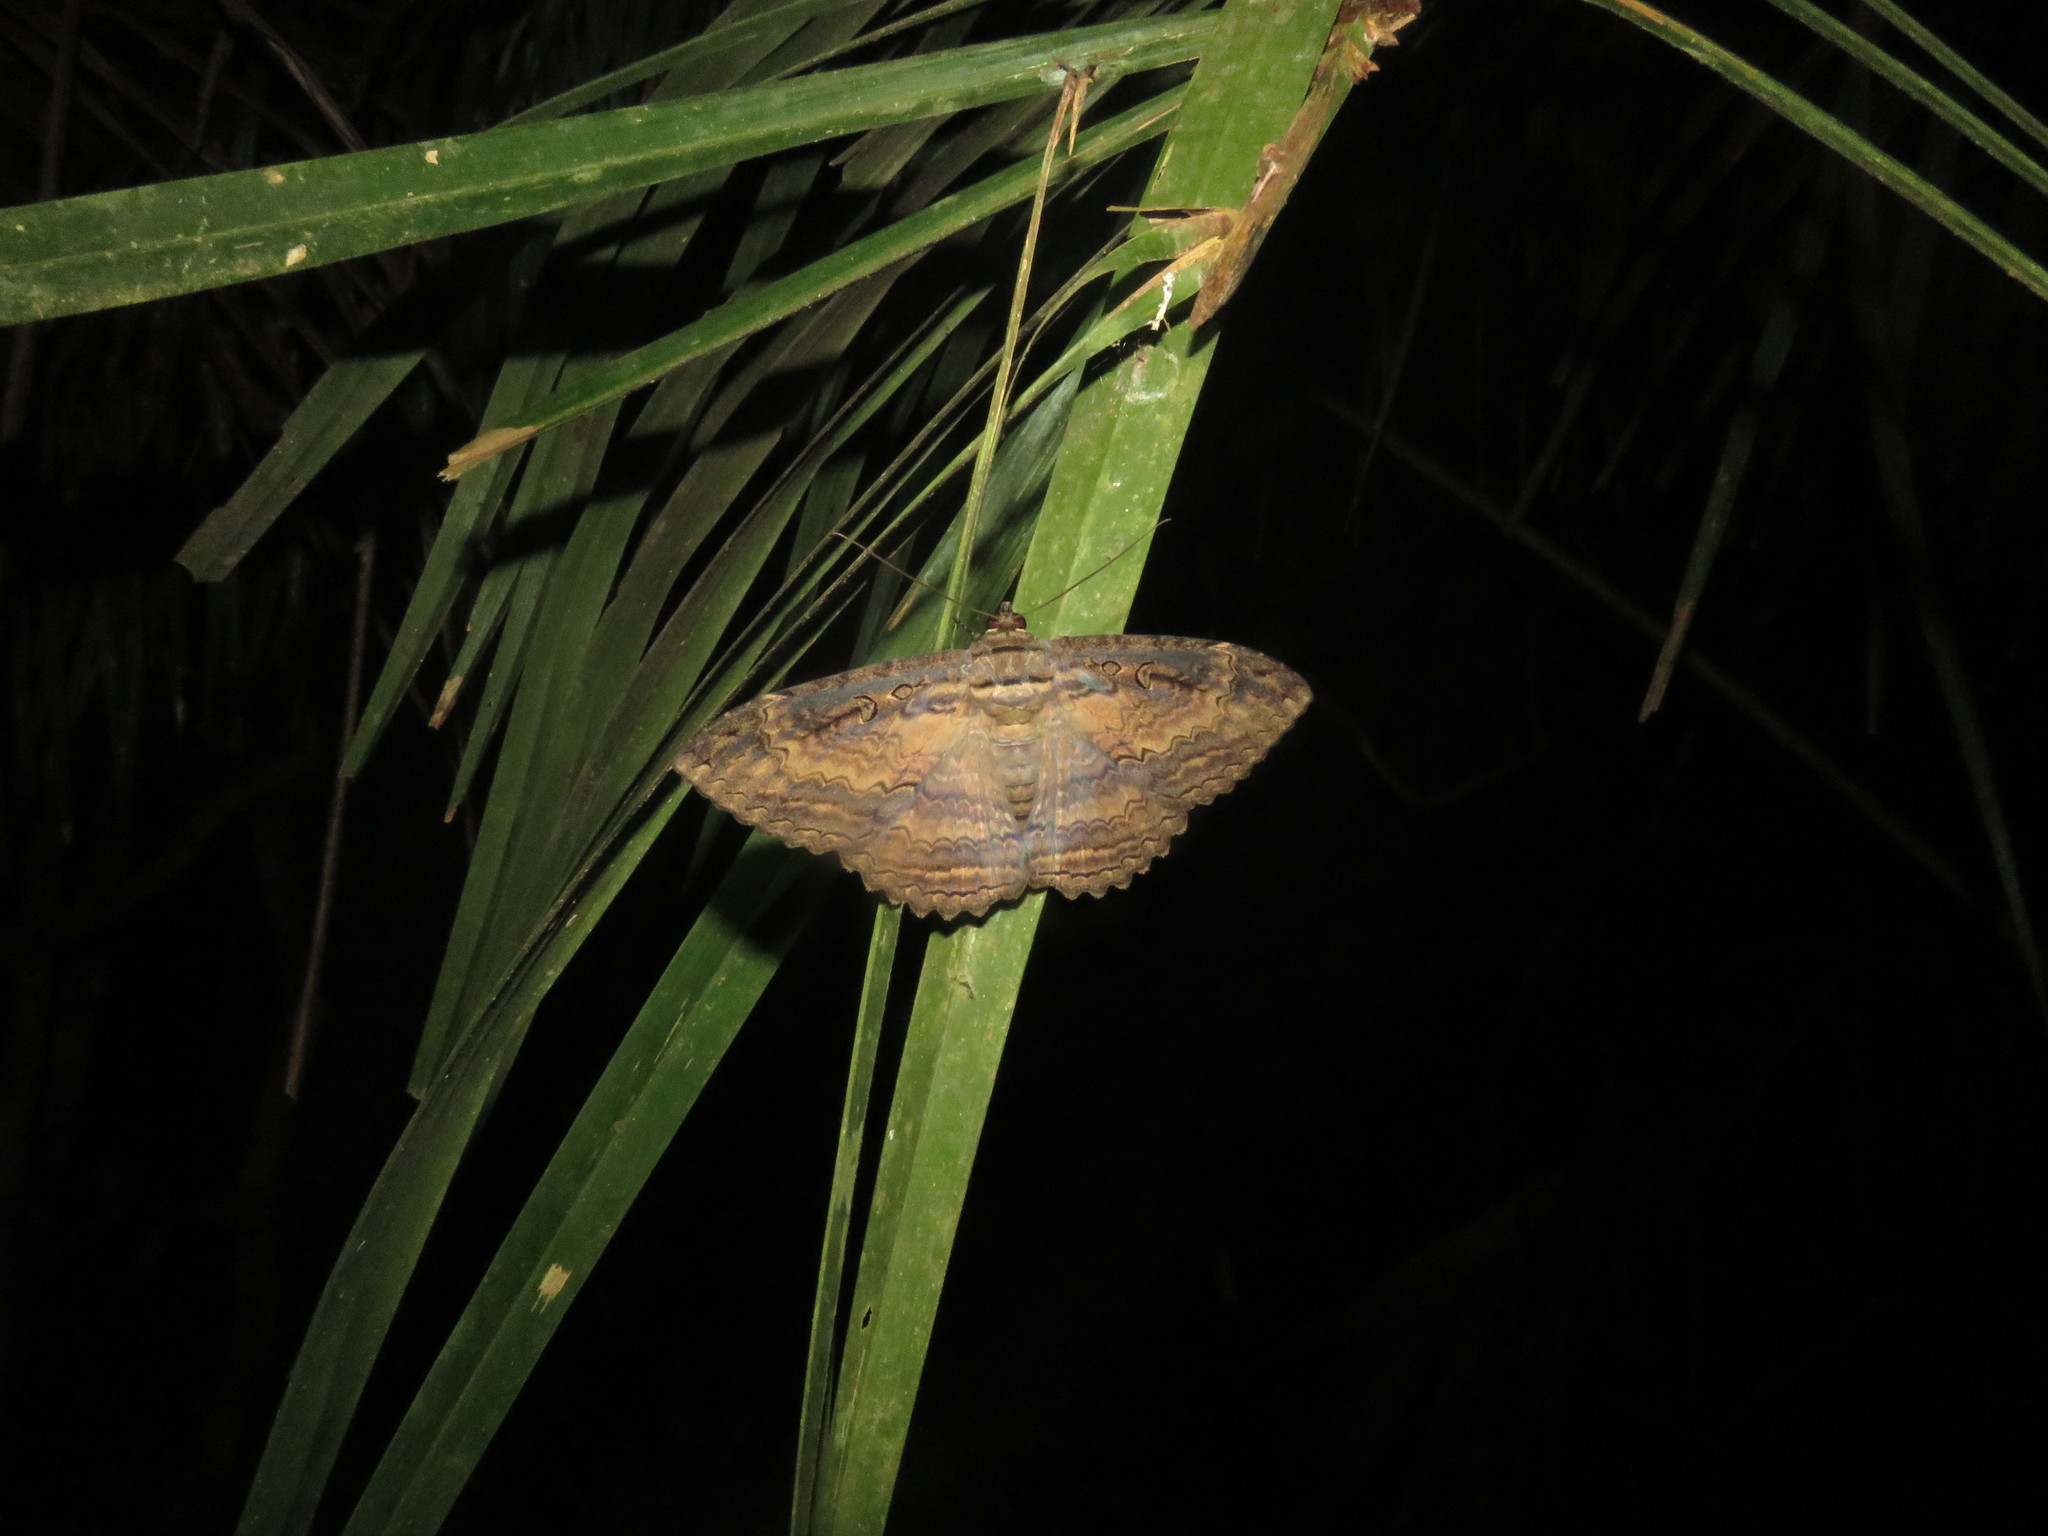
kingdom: Animalia
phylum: Arthropoda
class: Insecta
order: Lepidoptera
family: Erebidae
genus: Feigeria
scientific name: Feigeria buteo
